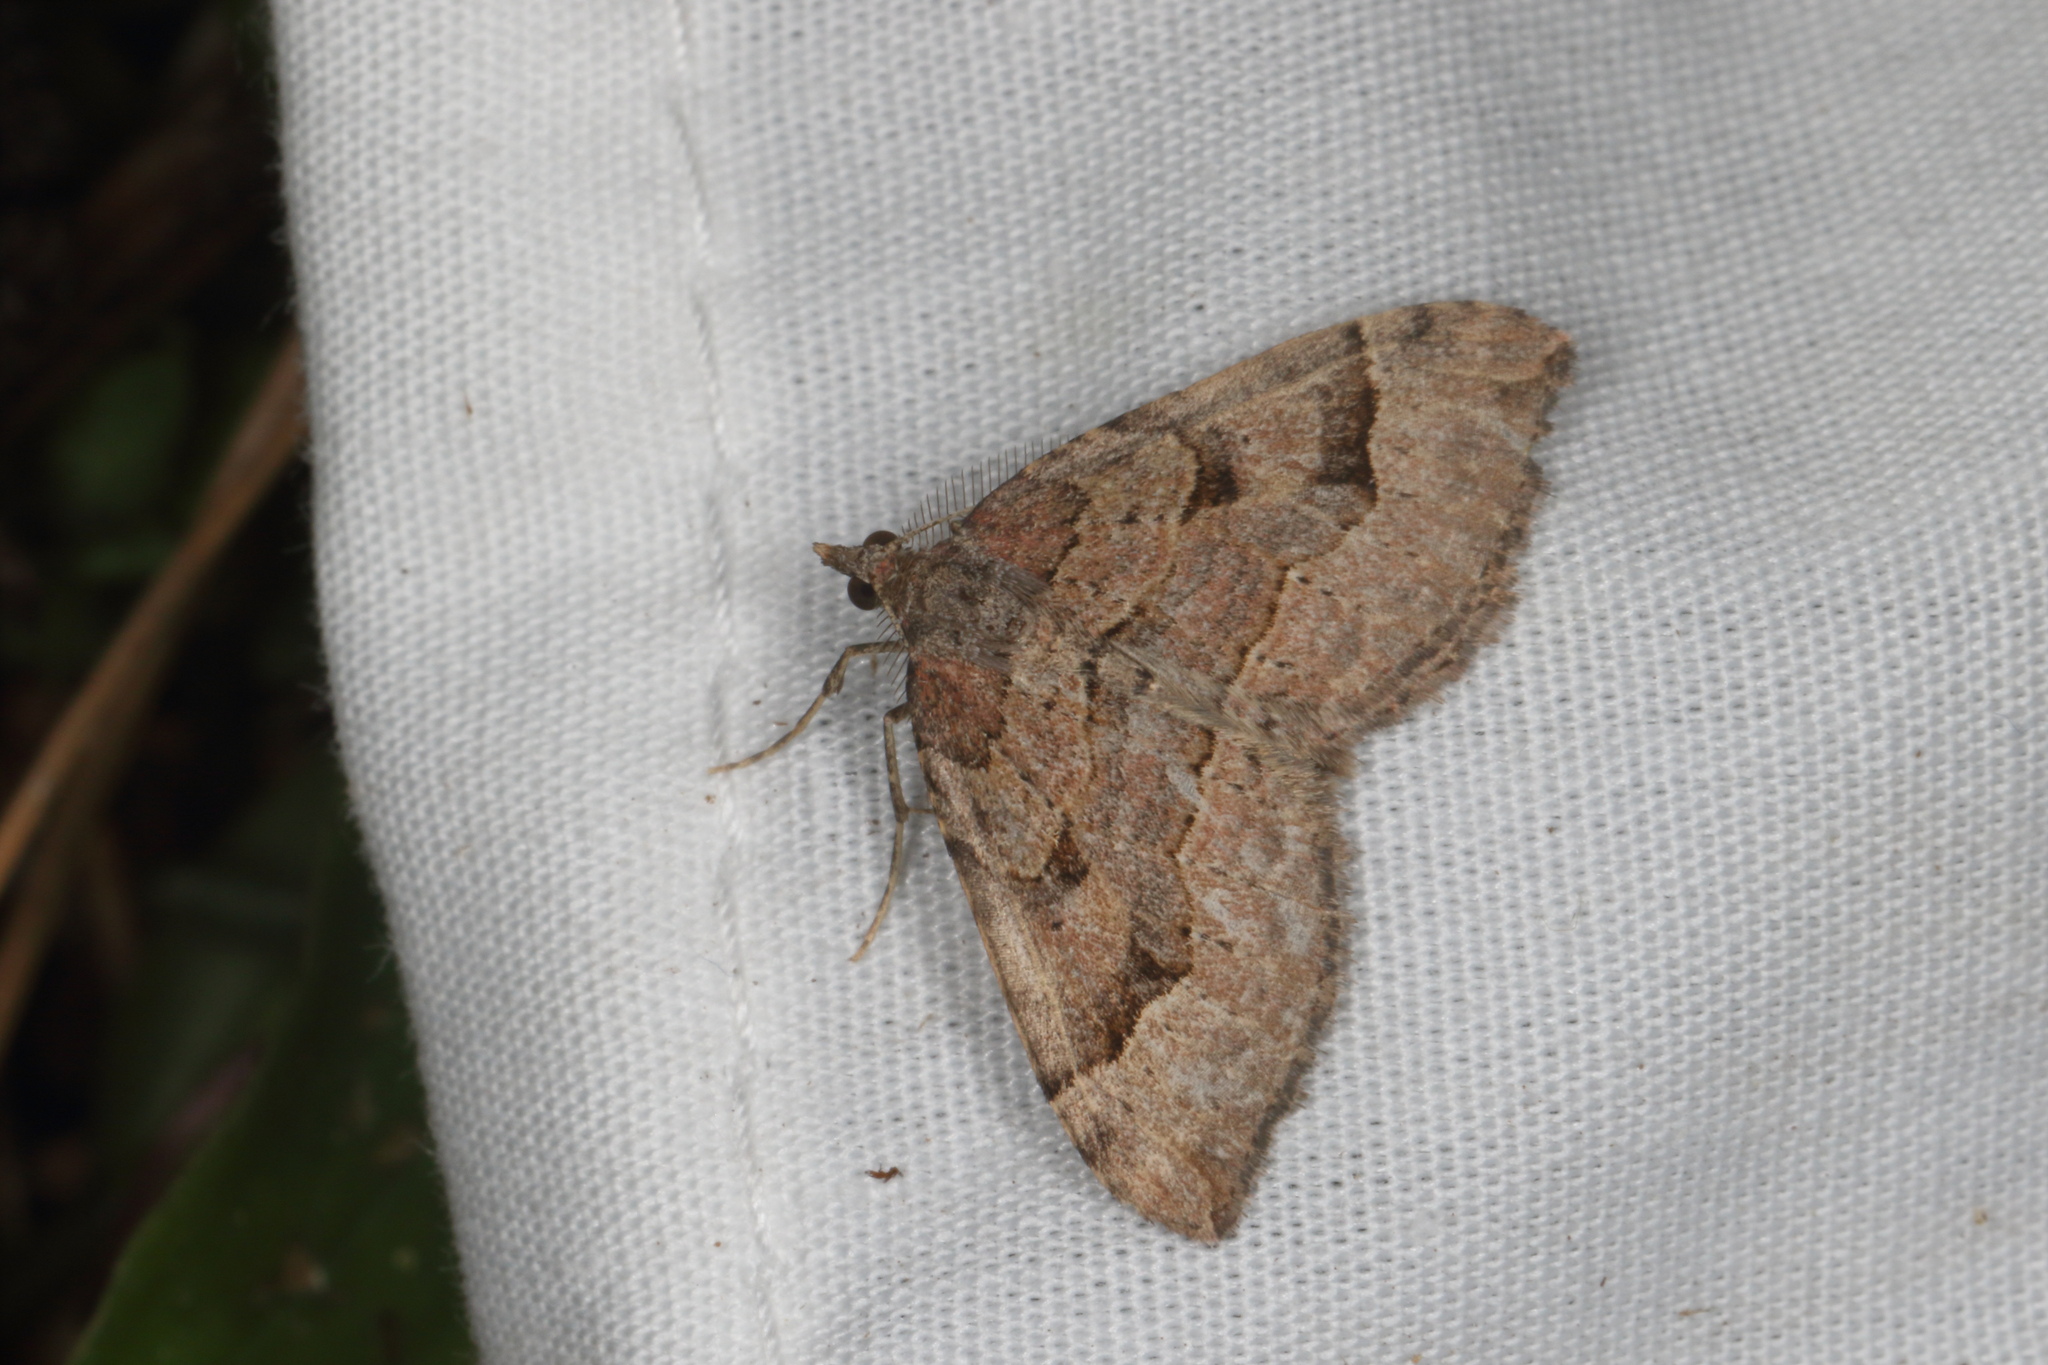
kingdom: Animalia
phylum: Arthropoda
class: Insecta
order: Lepidoptera
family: Geometridae
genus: Epyaxa
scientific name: Epyaxa rosearia
